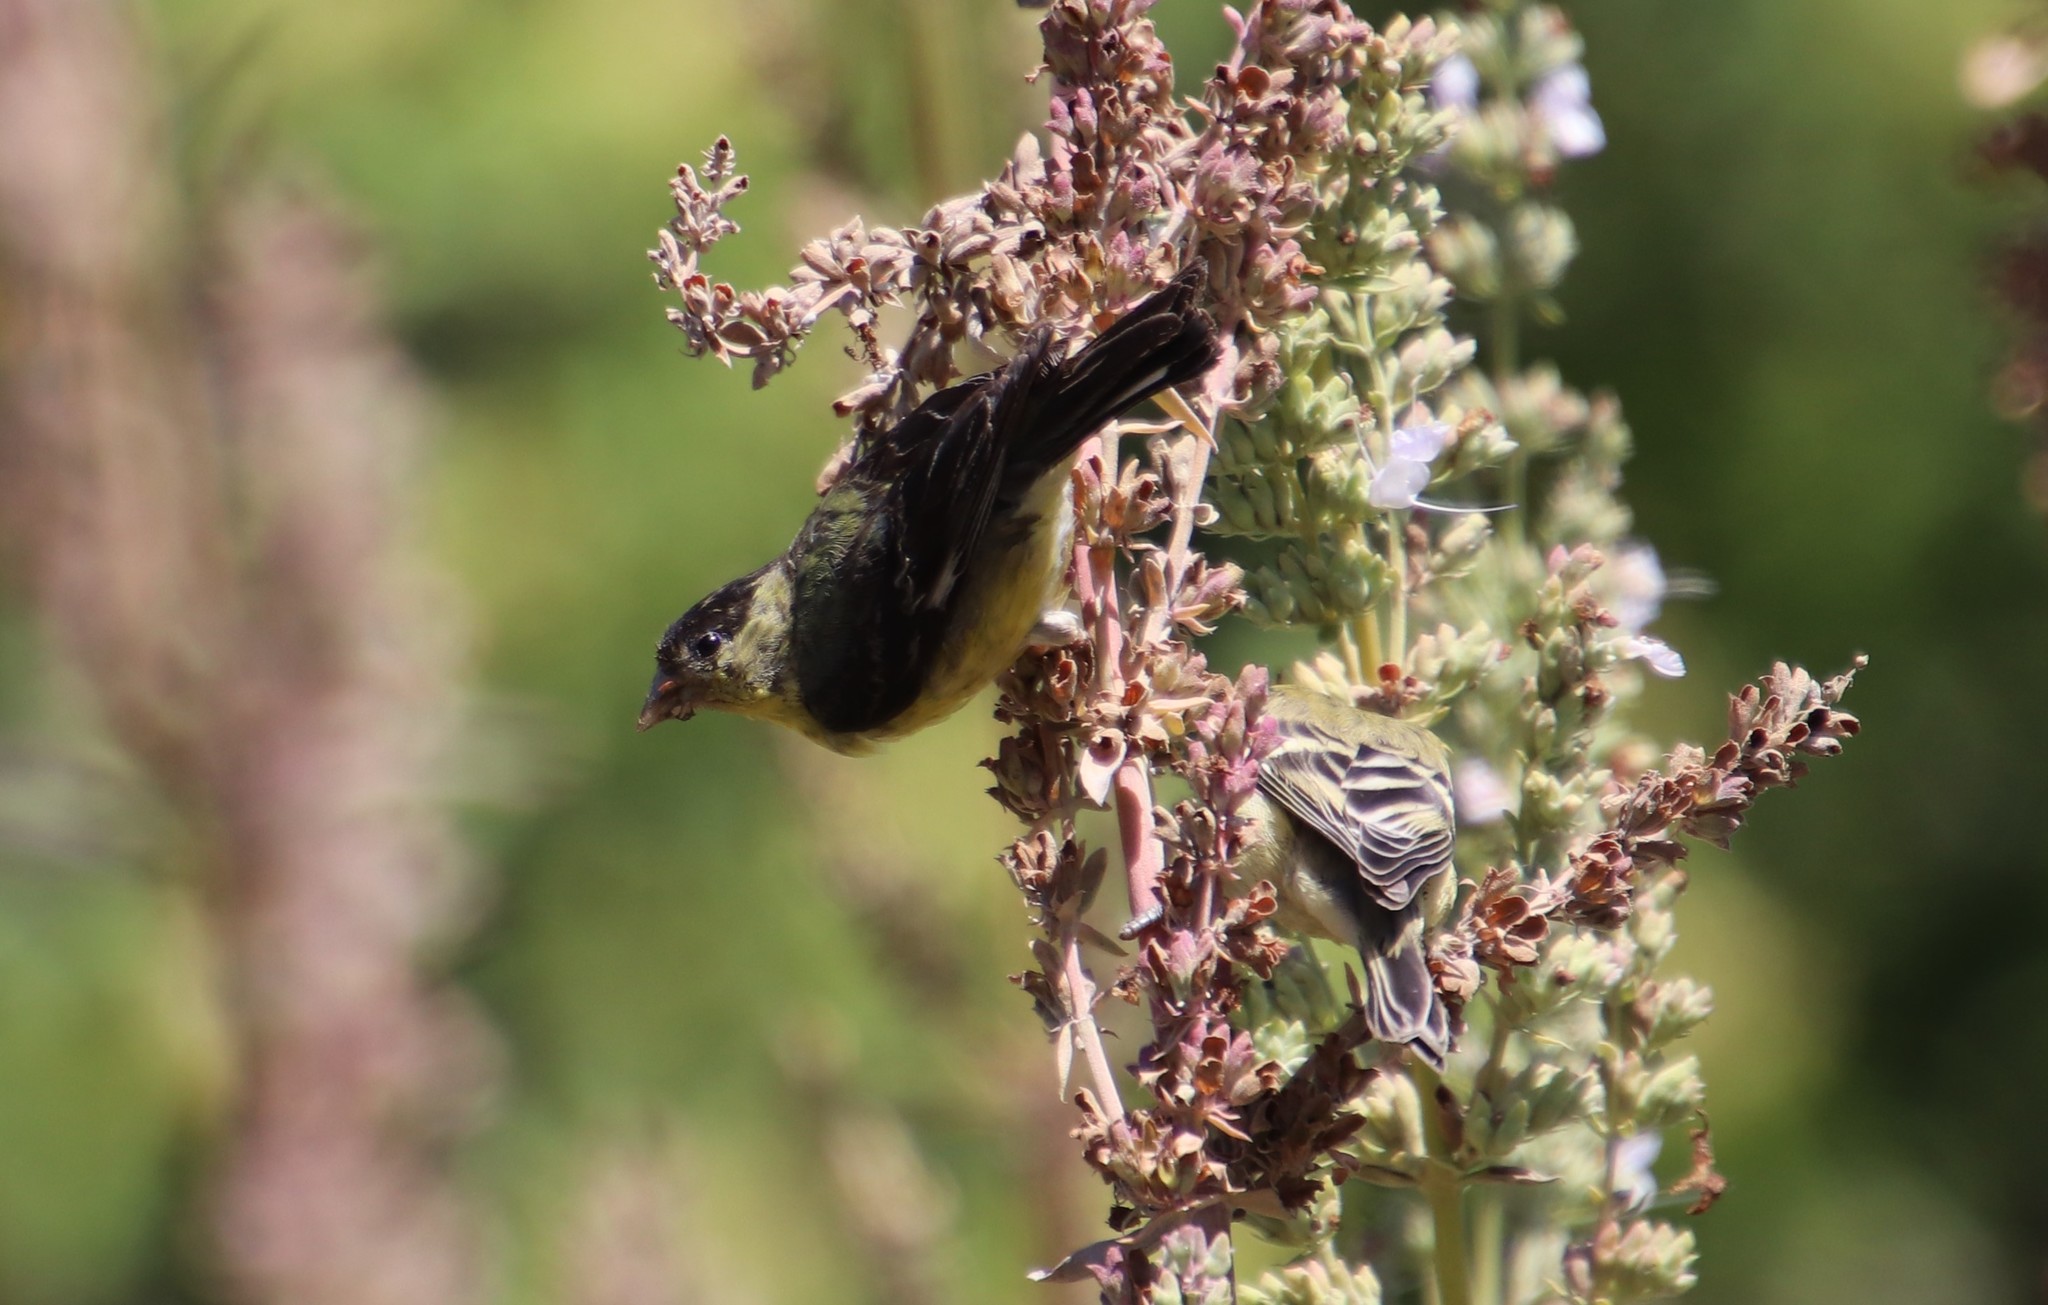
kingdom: Animalia
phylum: Chordata
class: Aves
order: Passeriformes
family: Fringillidae
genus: Spinus
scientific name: Spinus psaltria
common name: Lesser goldfinch
